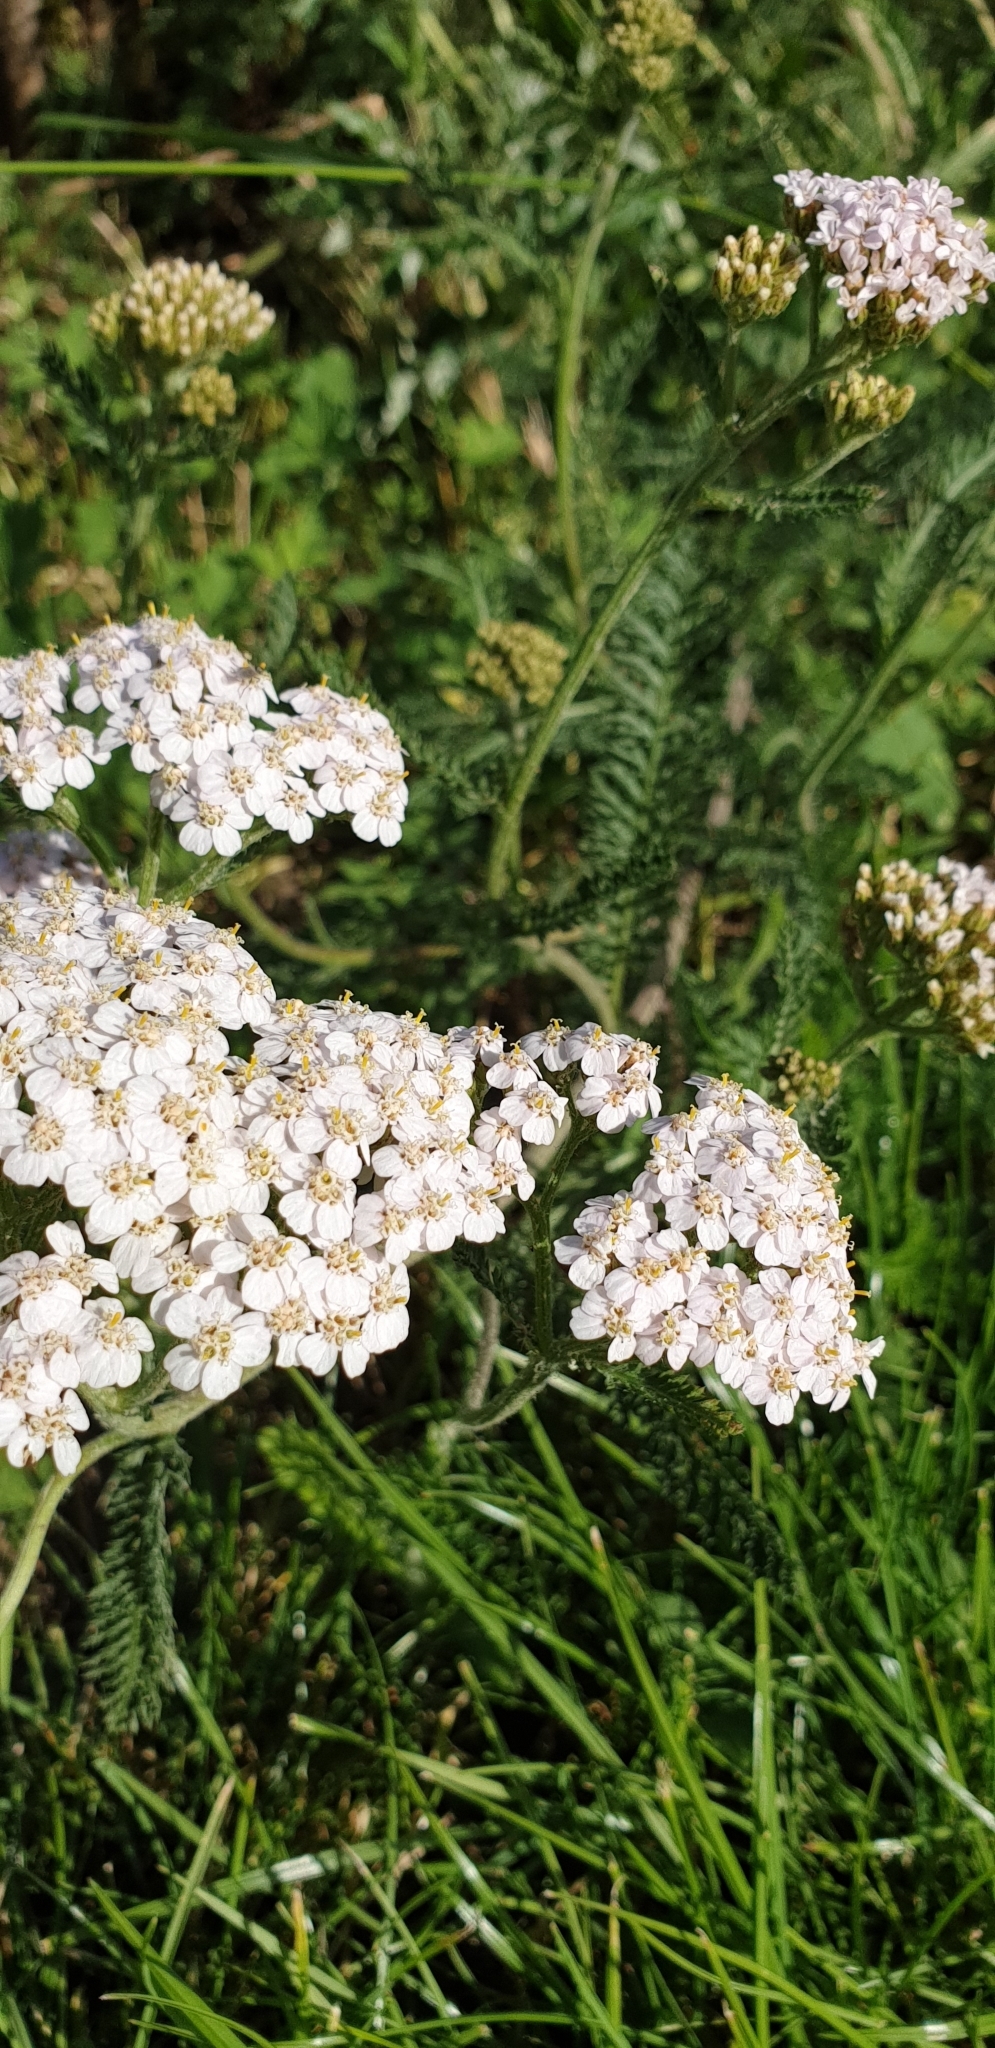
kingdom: Plantae
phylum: Tracheophyta
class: Magnoliopsida
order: Asterales
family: Asteraceae
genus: Achillea
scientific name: Achillea millefolium
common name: Yarrow
